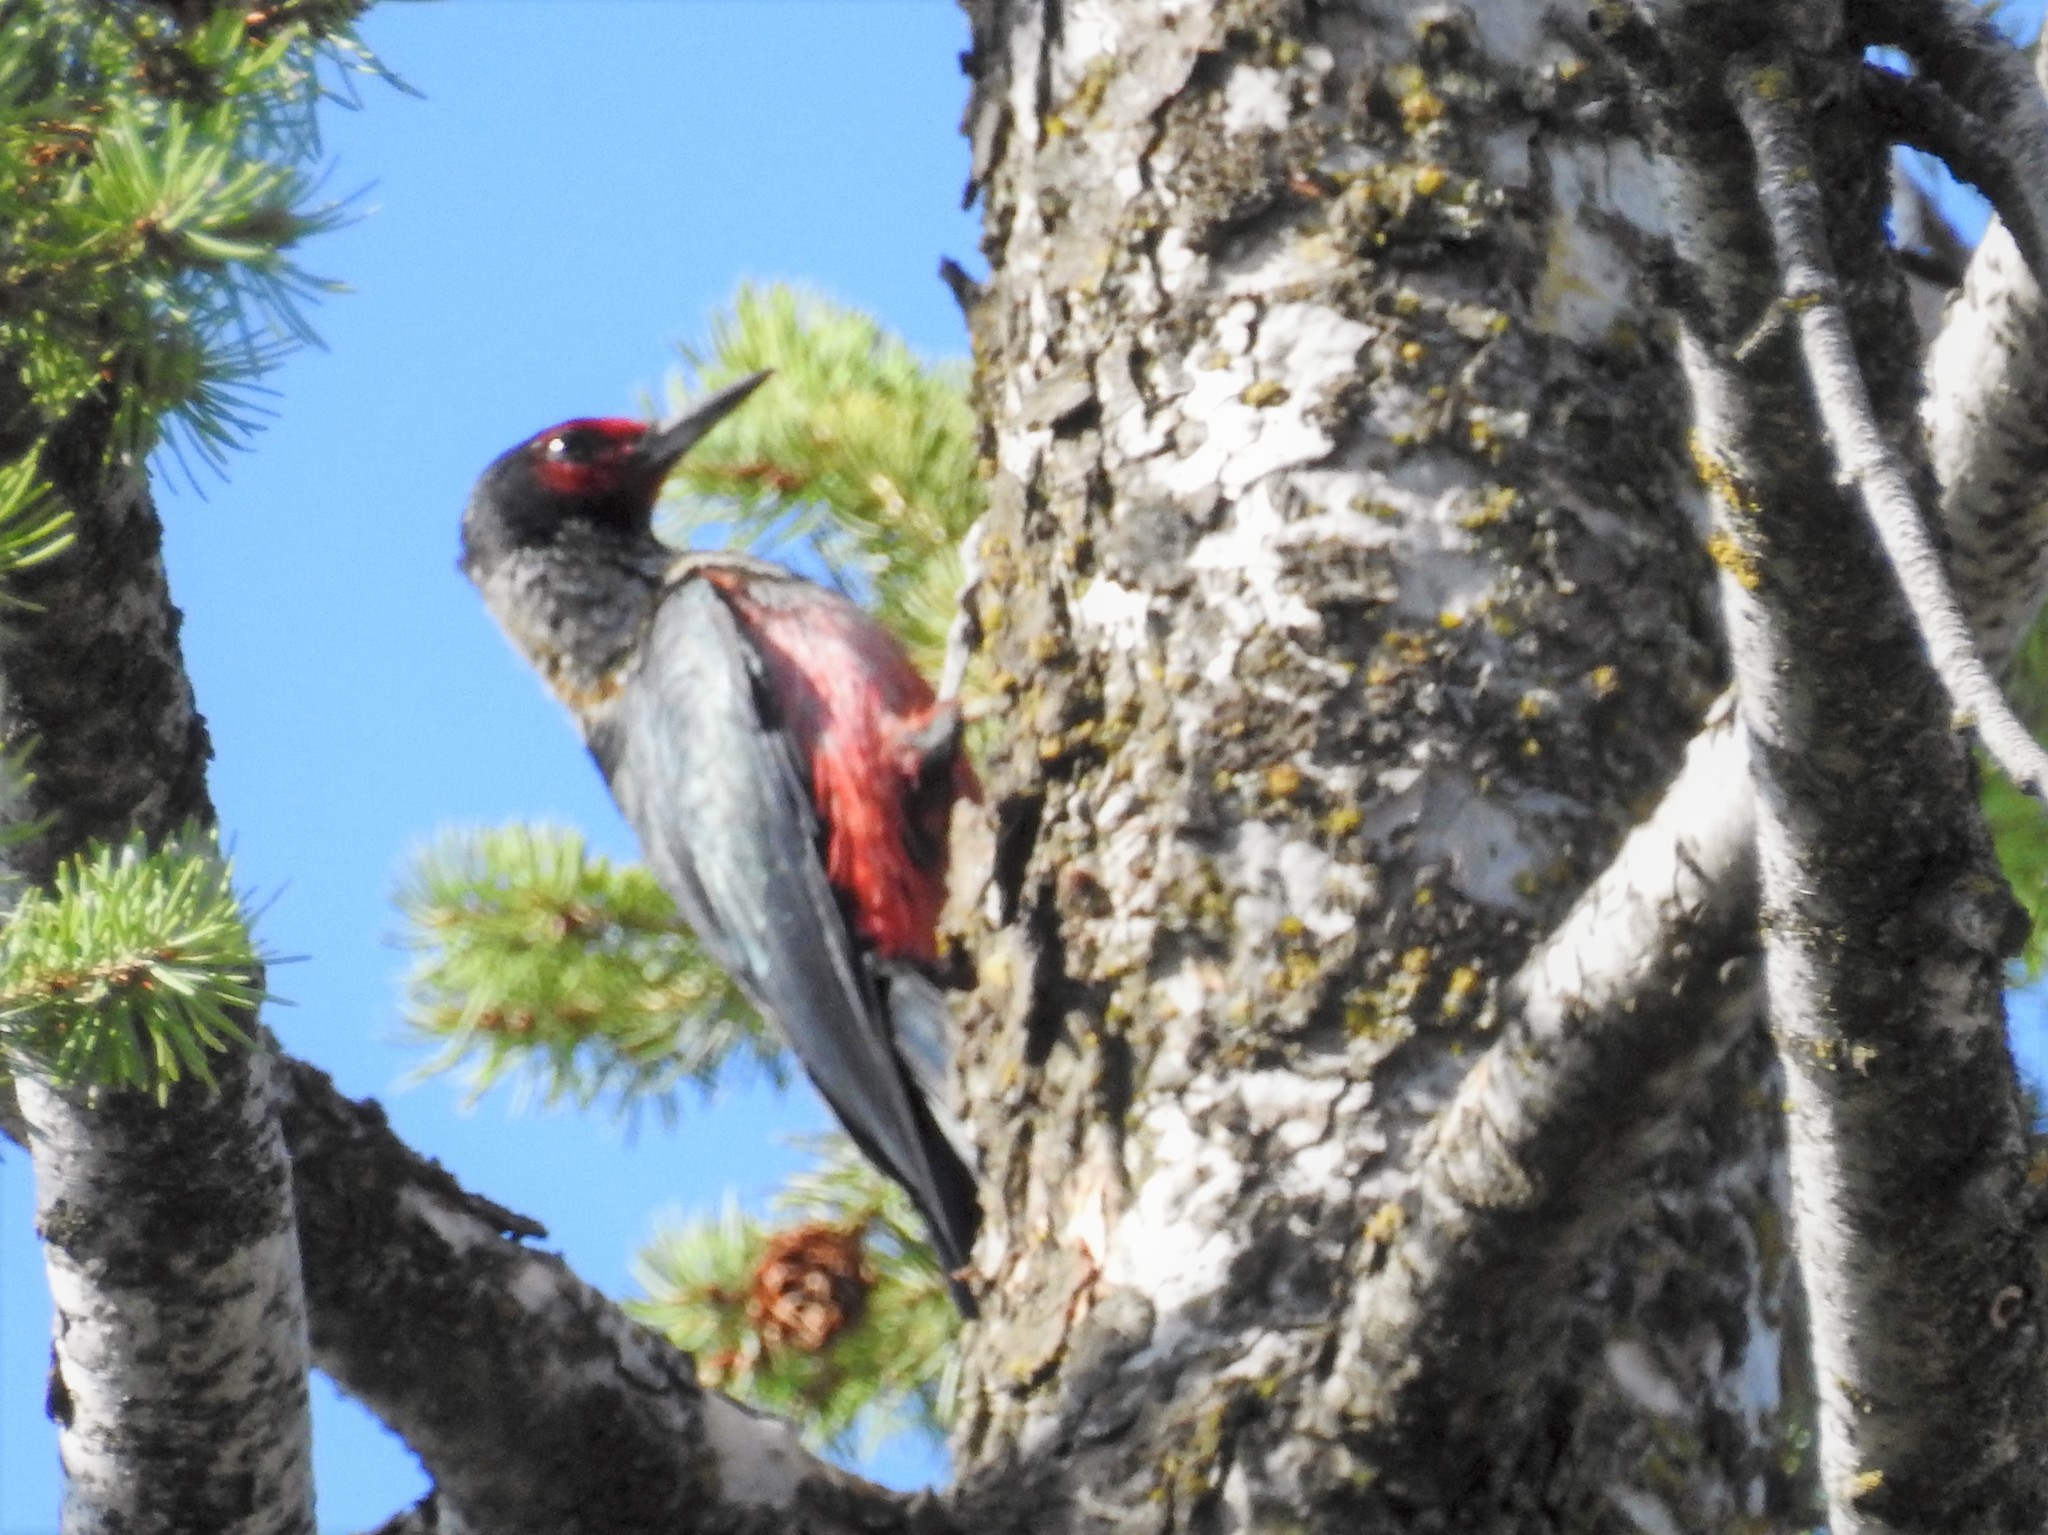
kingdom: Animalia
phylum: Chordata
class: Aves
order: Piciformes
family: Picidae
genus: Melanerpes
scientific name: Melanerpes lewis
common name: Lewis's woodpecker
